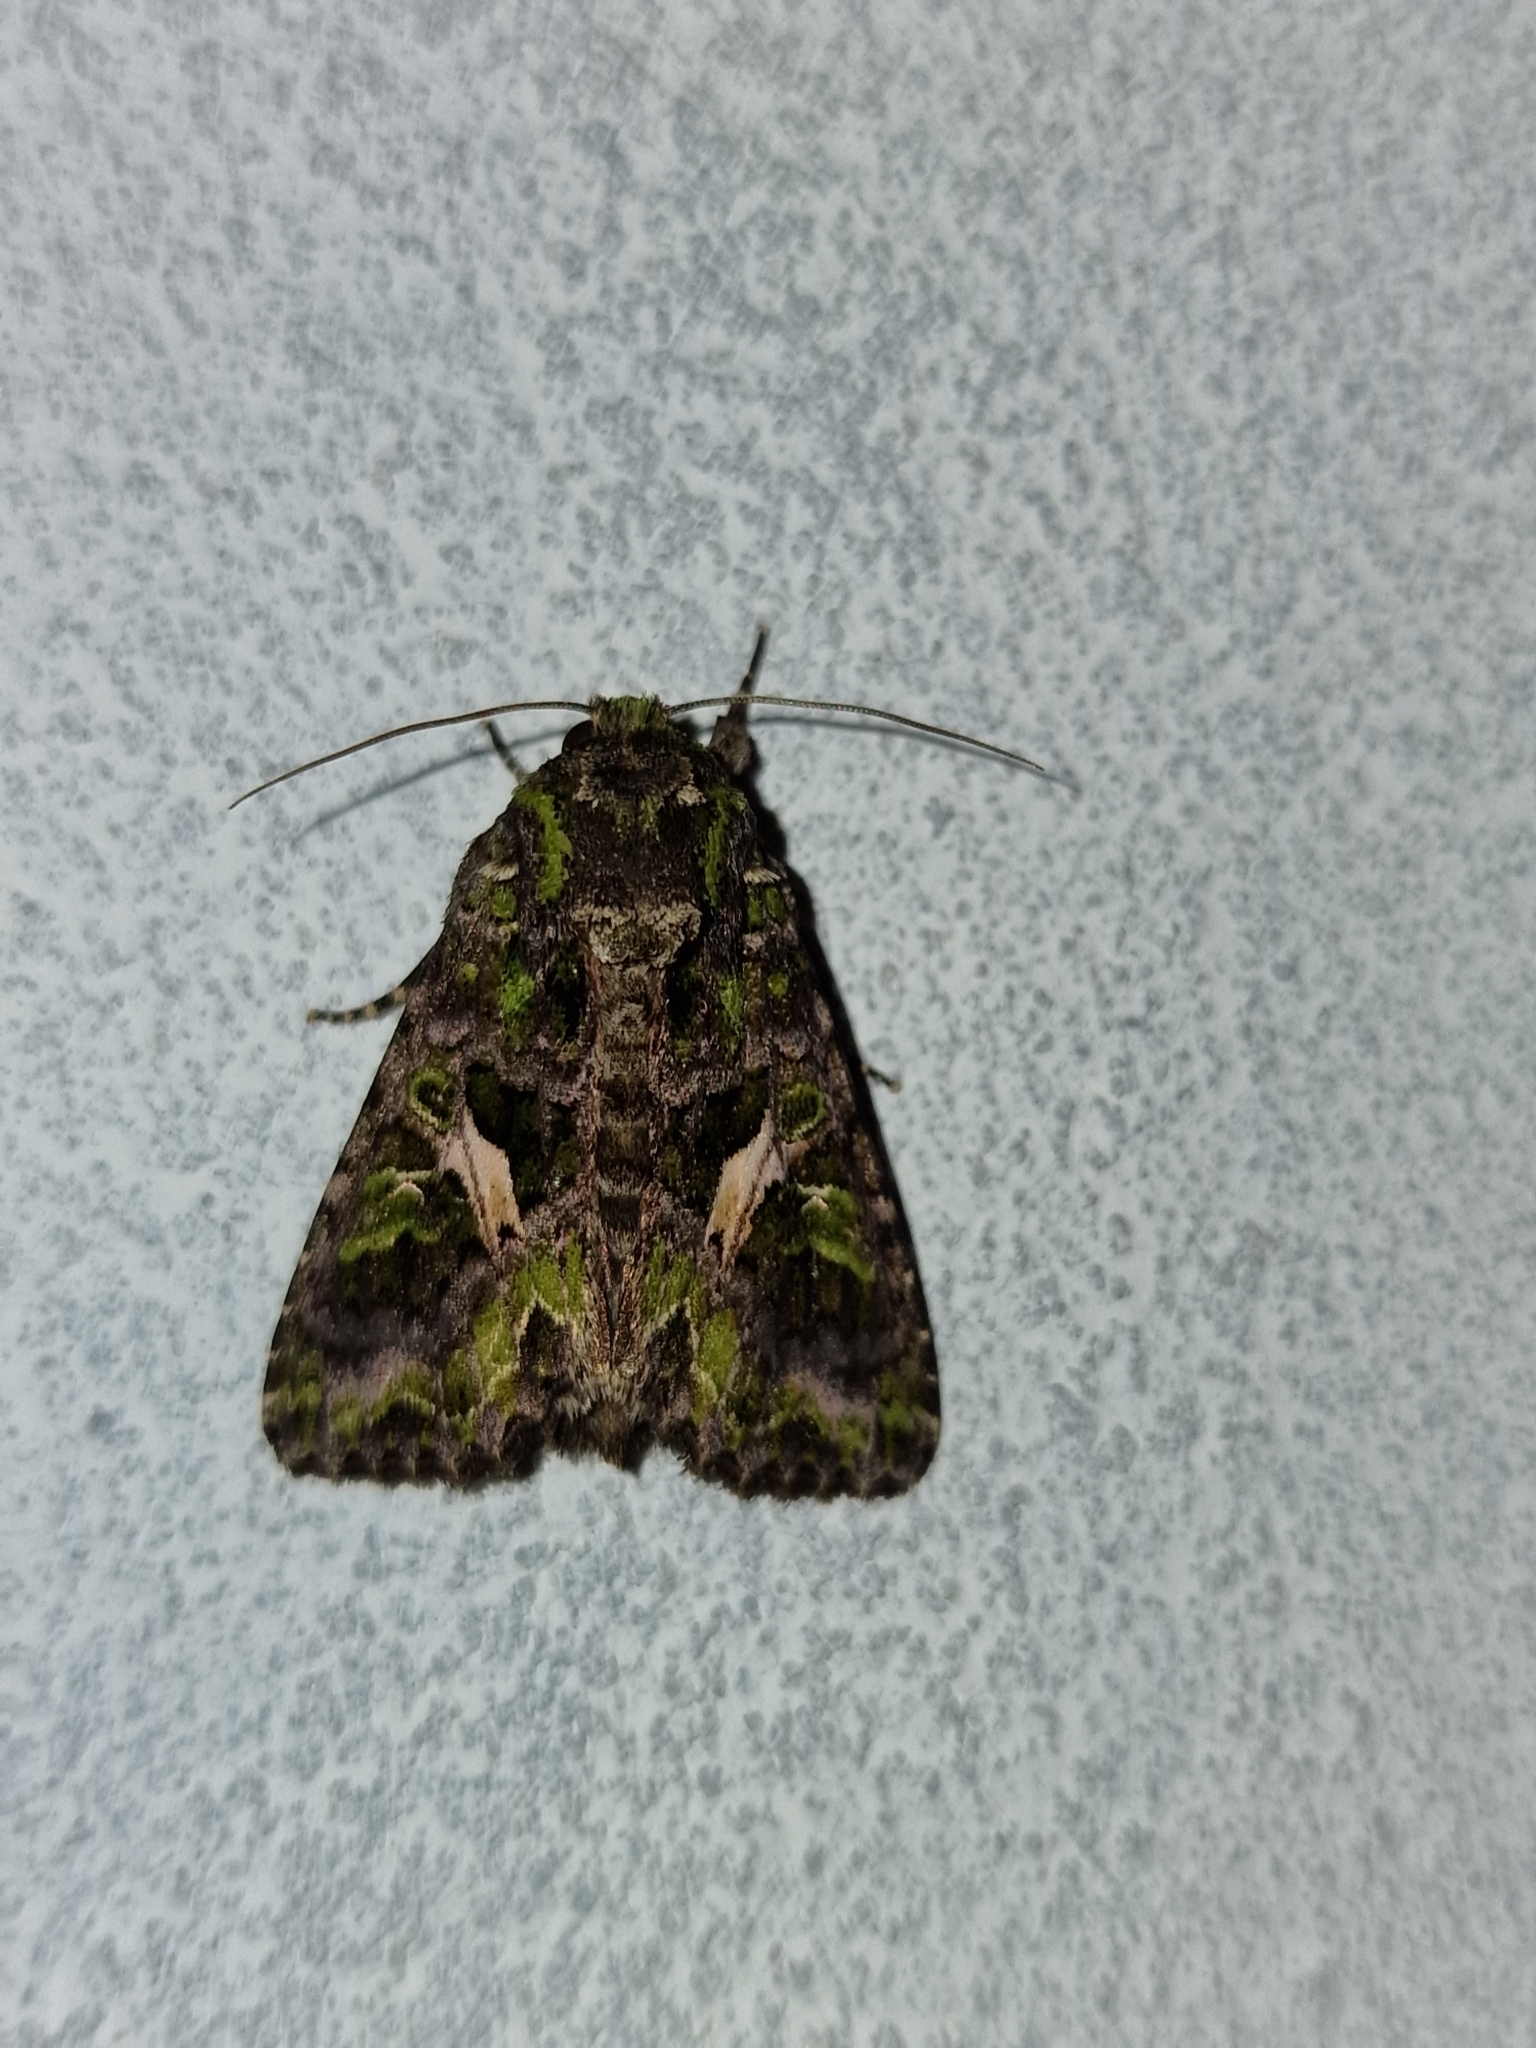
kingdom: Animalia
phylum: Arthropoda
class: Insecta
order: Lepidoptera
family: Noctuidae
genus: Trachea
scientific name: Trachea atriplicis
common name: Orache moth
